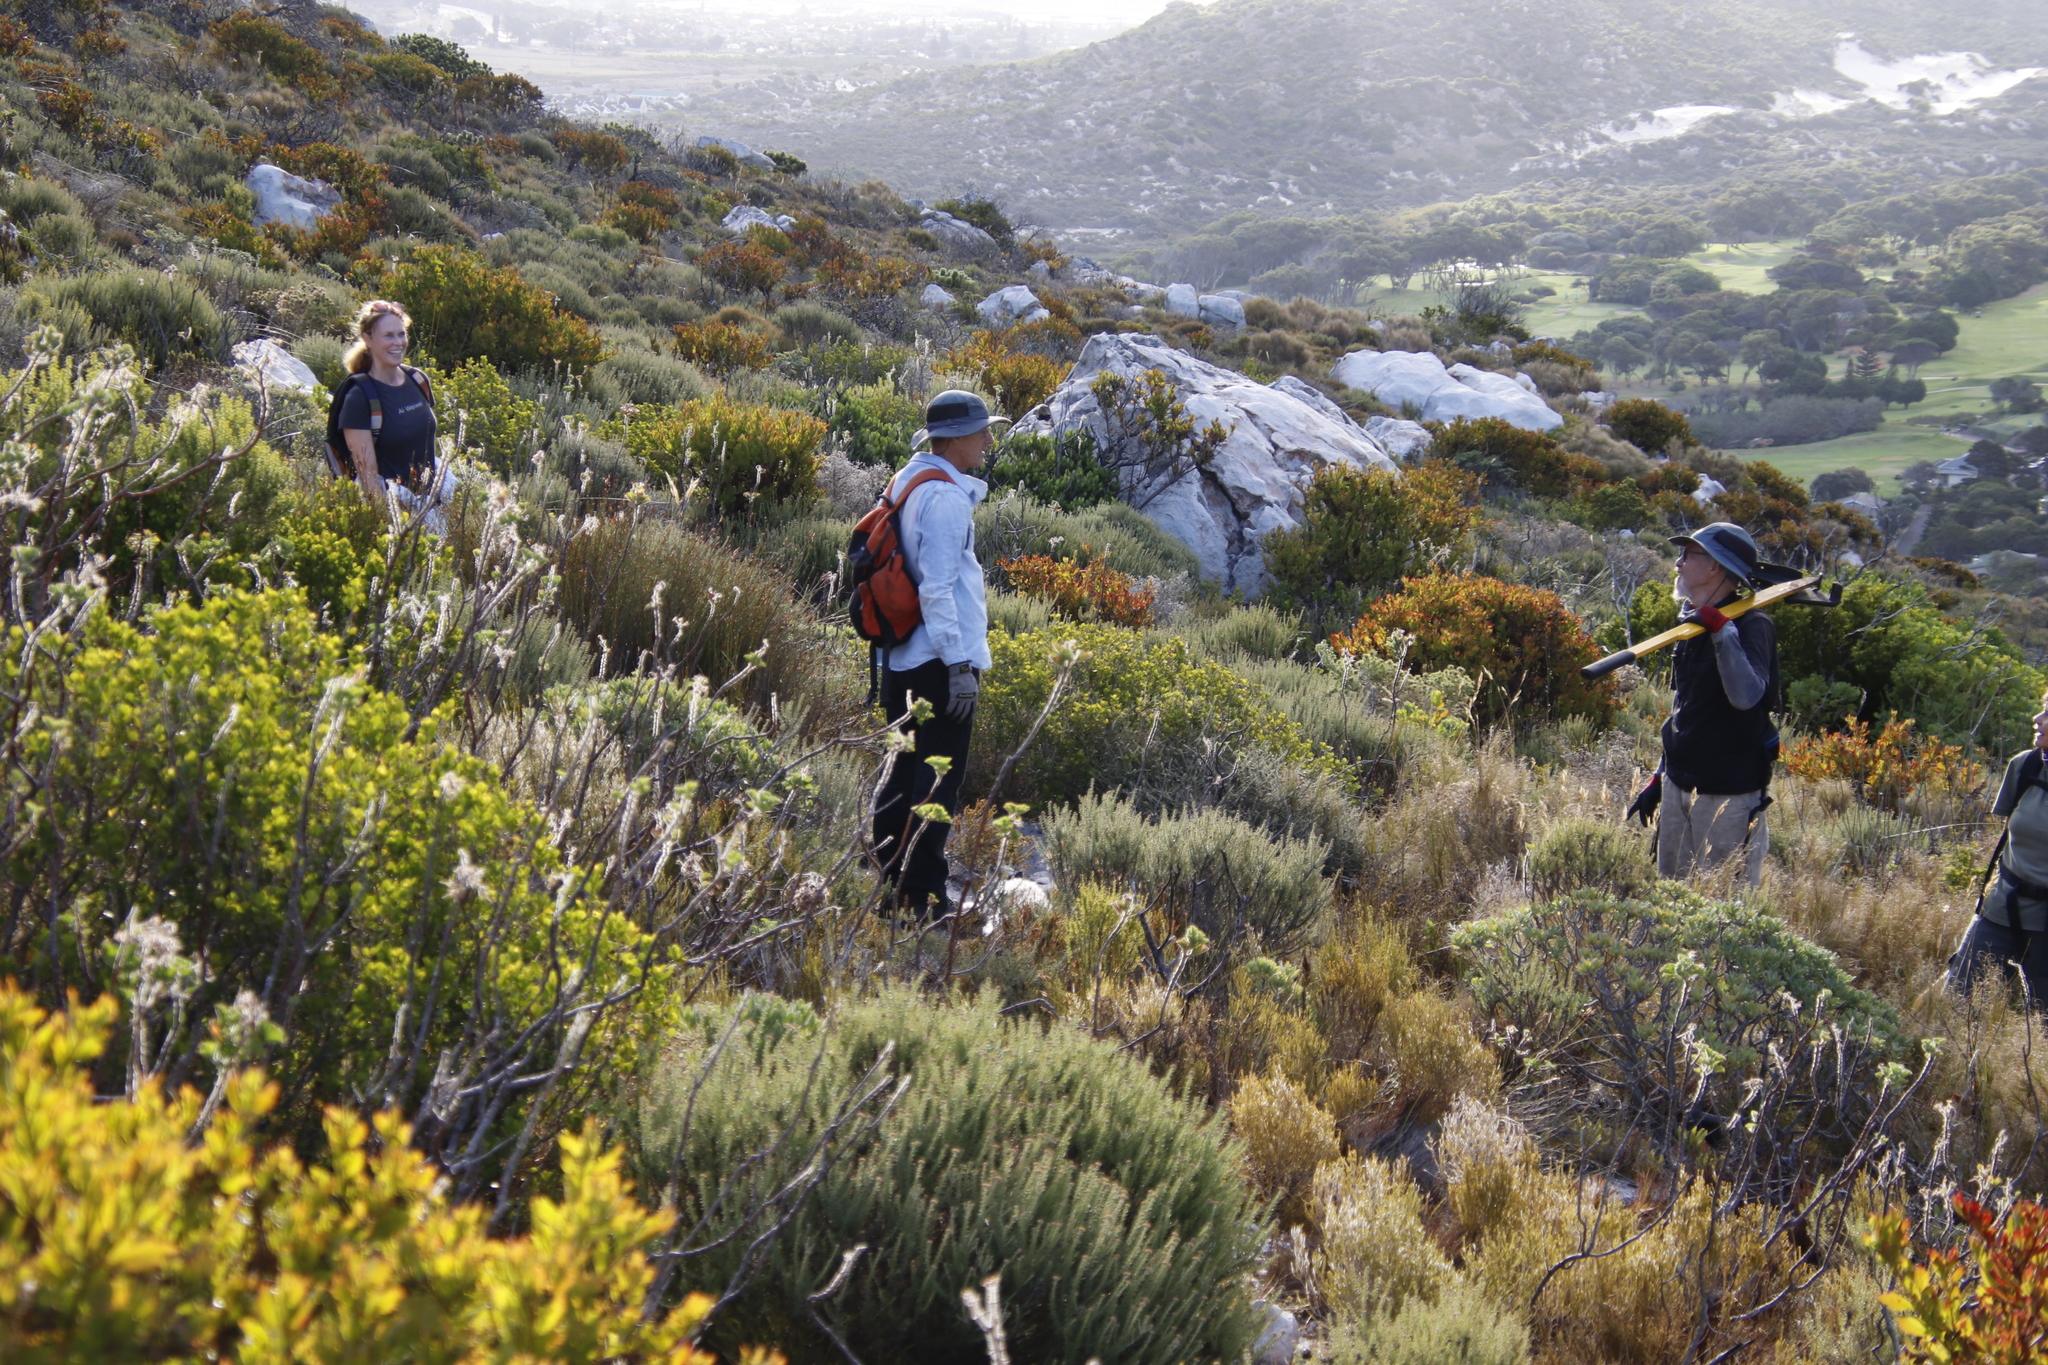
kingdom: Plantae
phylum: Tracheophyta
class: Magnoliopsida
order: Asterales
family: Asteraceae
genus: Osteospermum
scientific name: Osteospermum moniliferum
